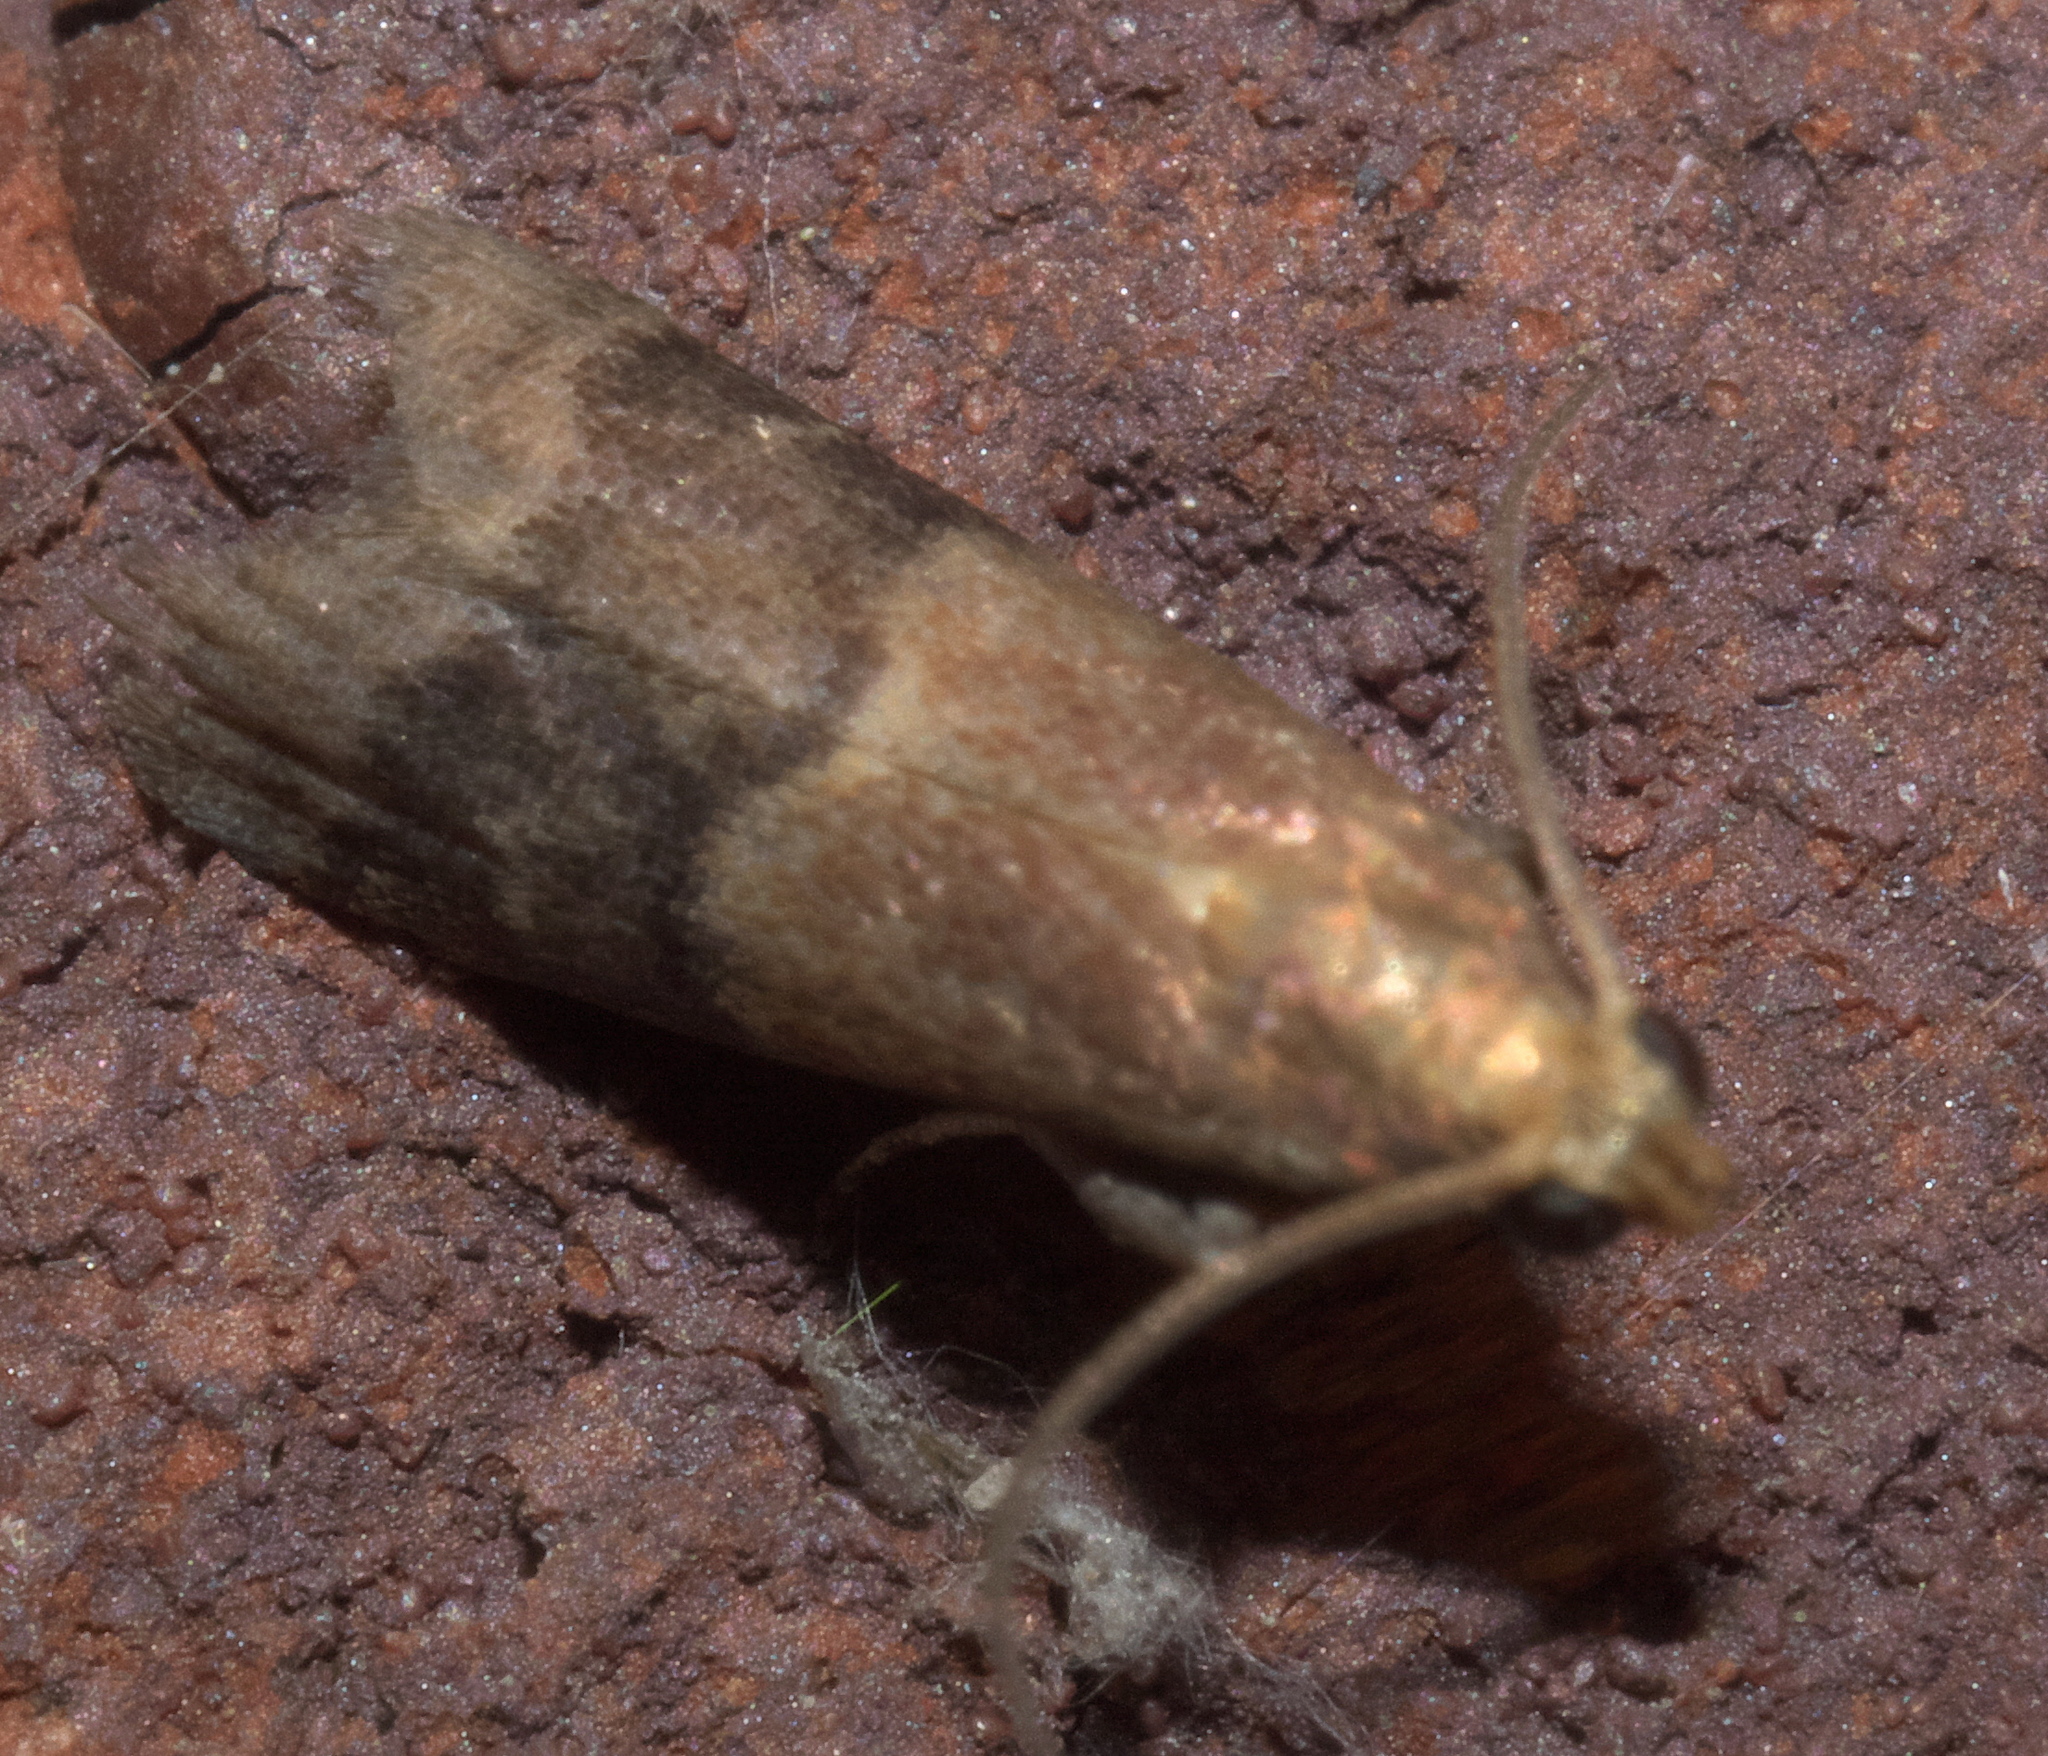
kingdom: Animalia
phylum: Arthropoda
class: Insecta
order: Lepidoptera
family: Pyralidae
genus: Eulogia
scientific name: Eulogia ochrifrontella
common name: Broad-banded eulogia moth
